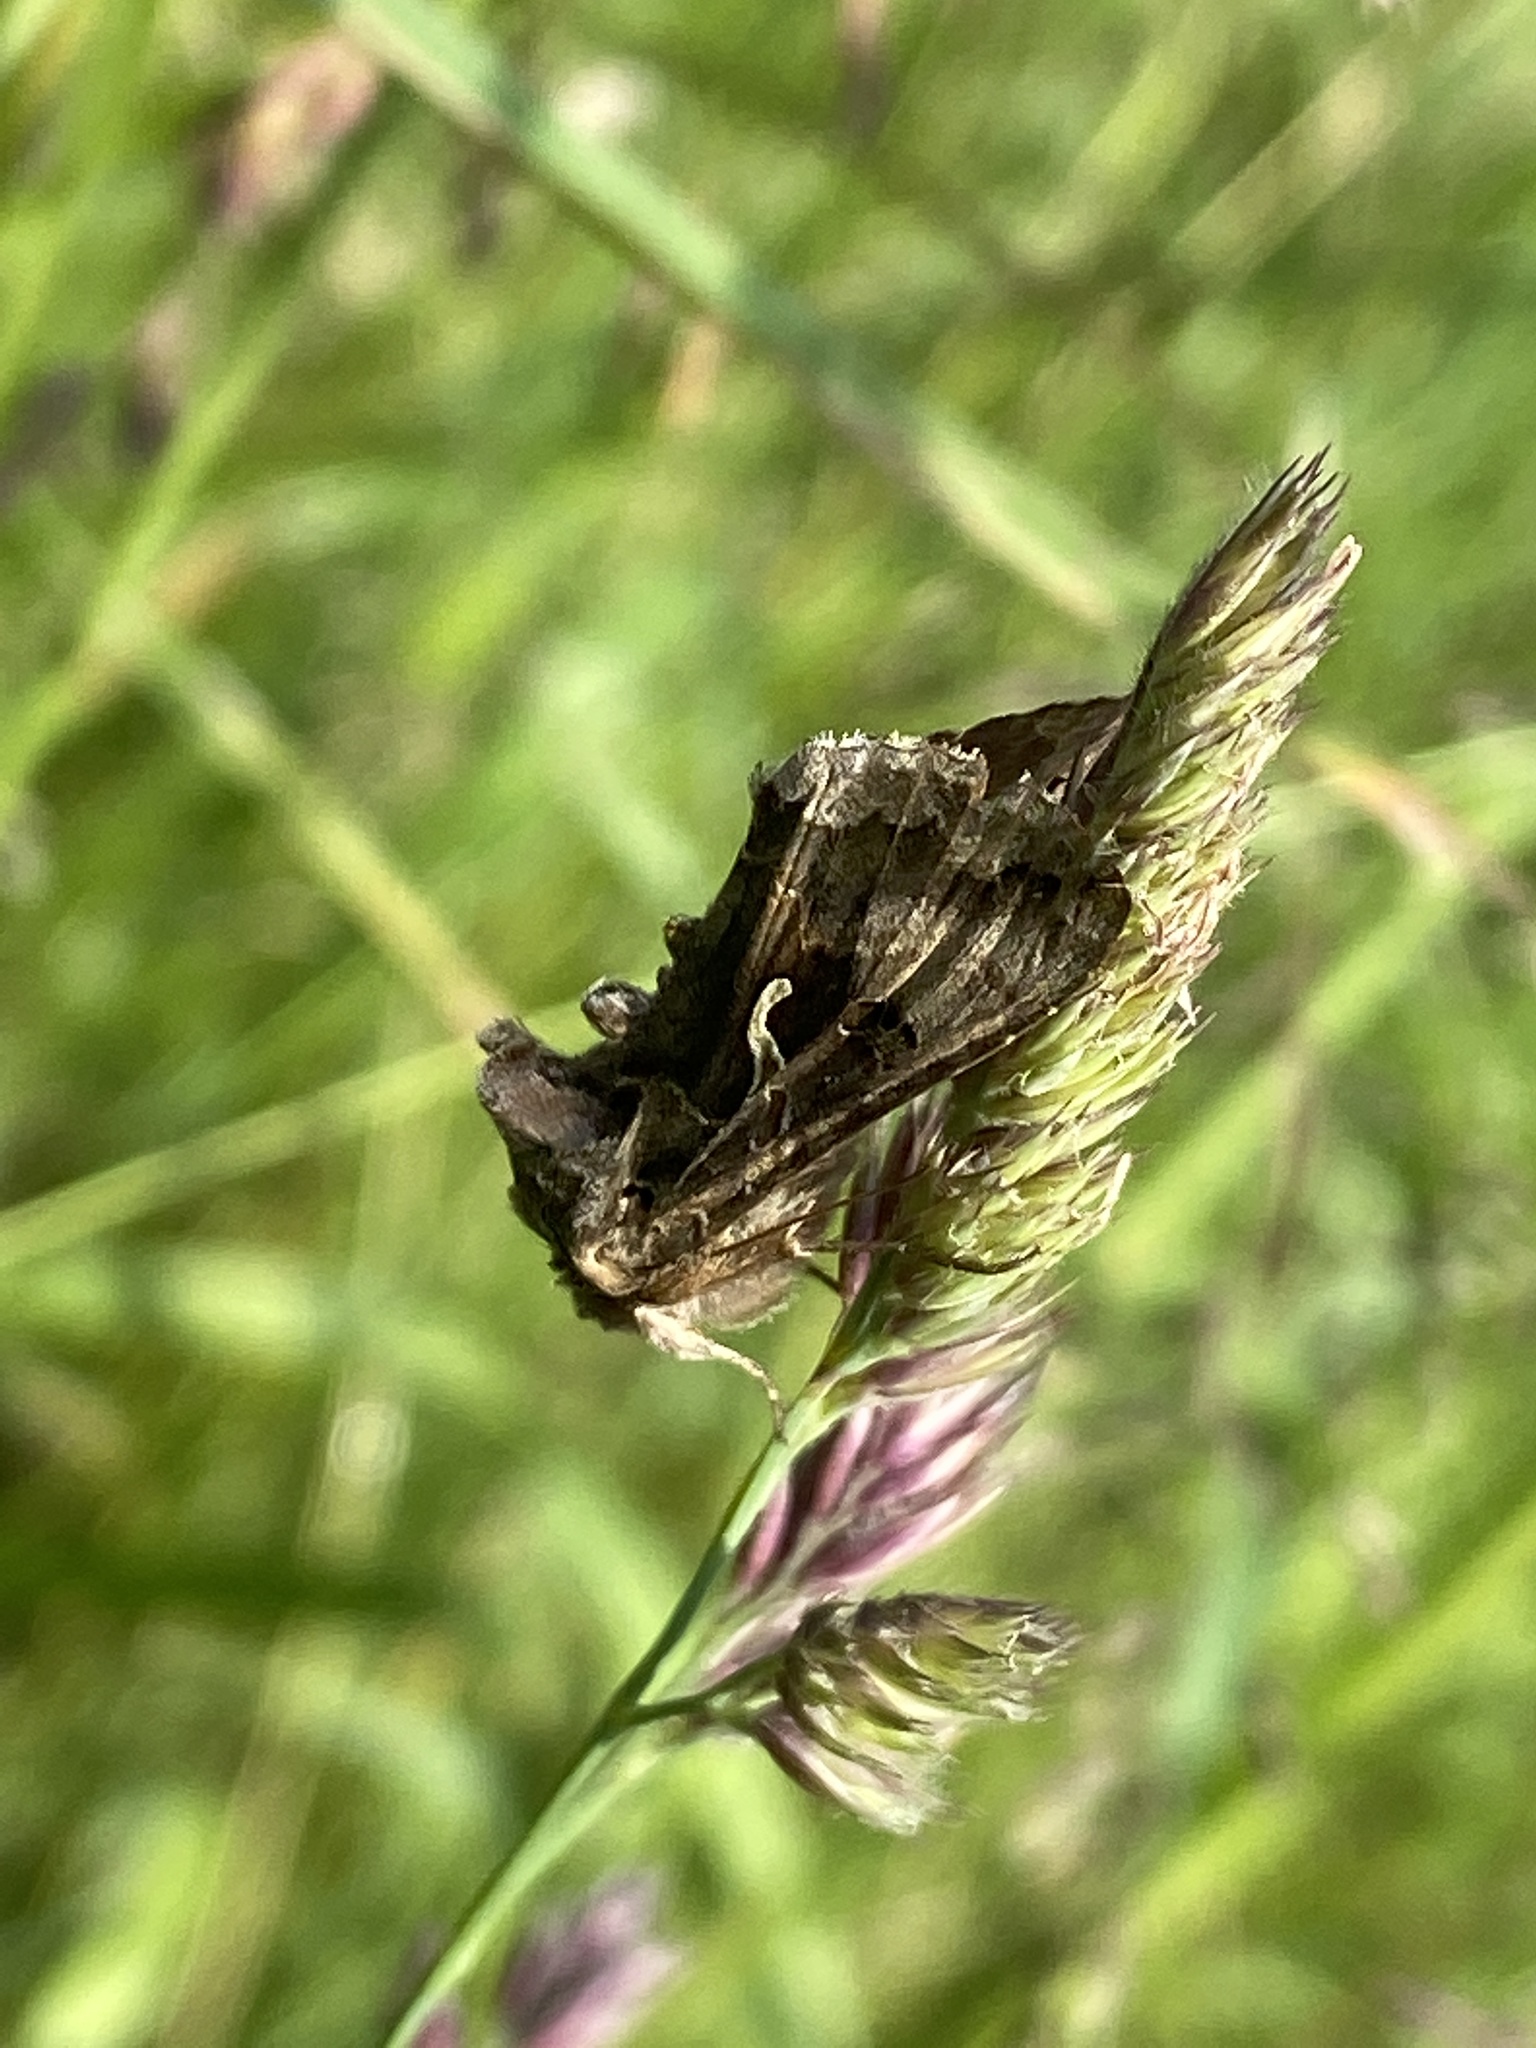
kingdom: Animalia
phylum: Arthropoda
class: Insecta
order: Lepidoptera
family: Noctuidae
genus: Autographa
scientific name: Autographa gamma
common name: Silver y
